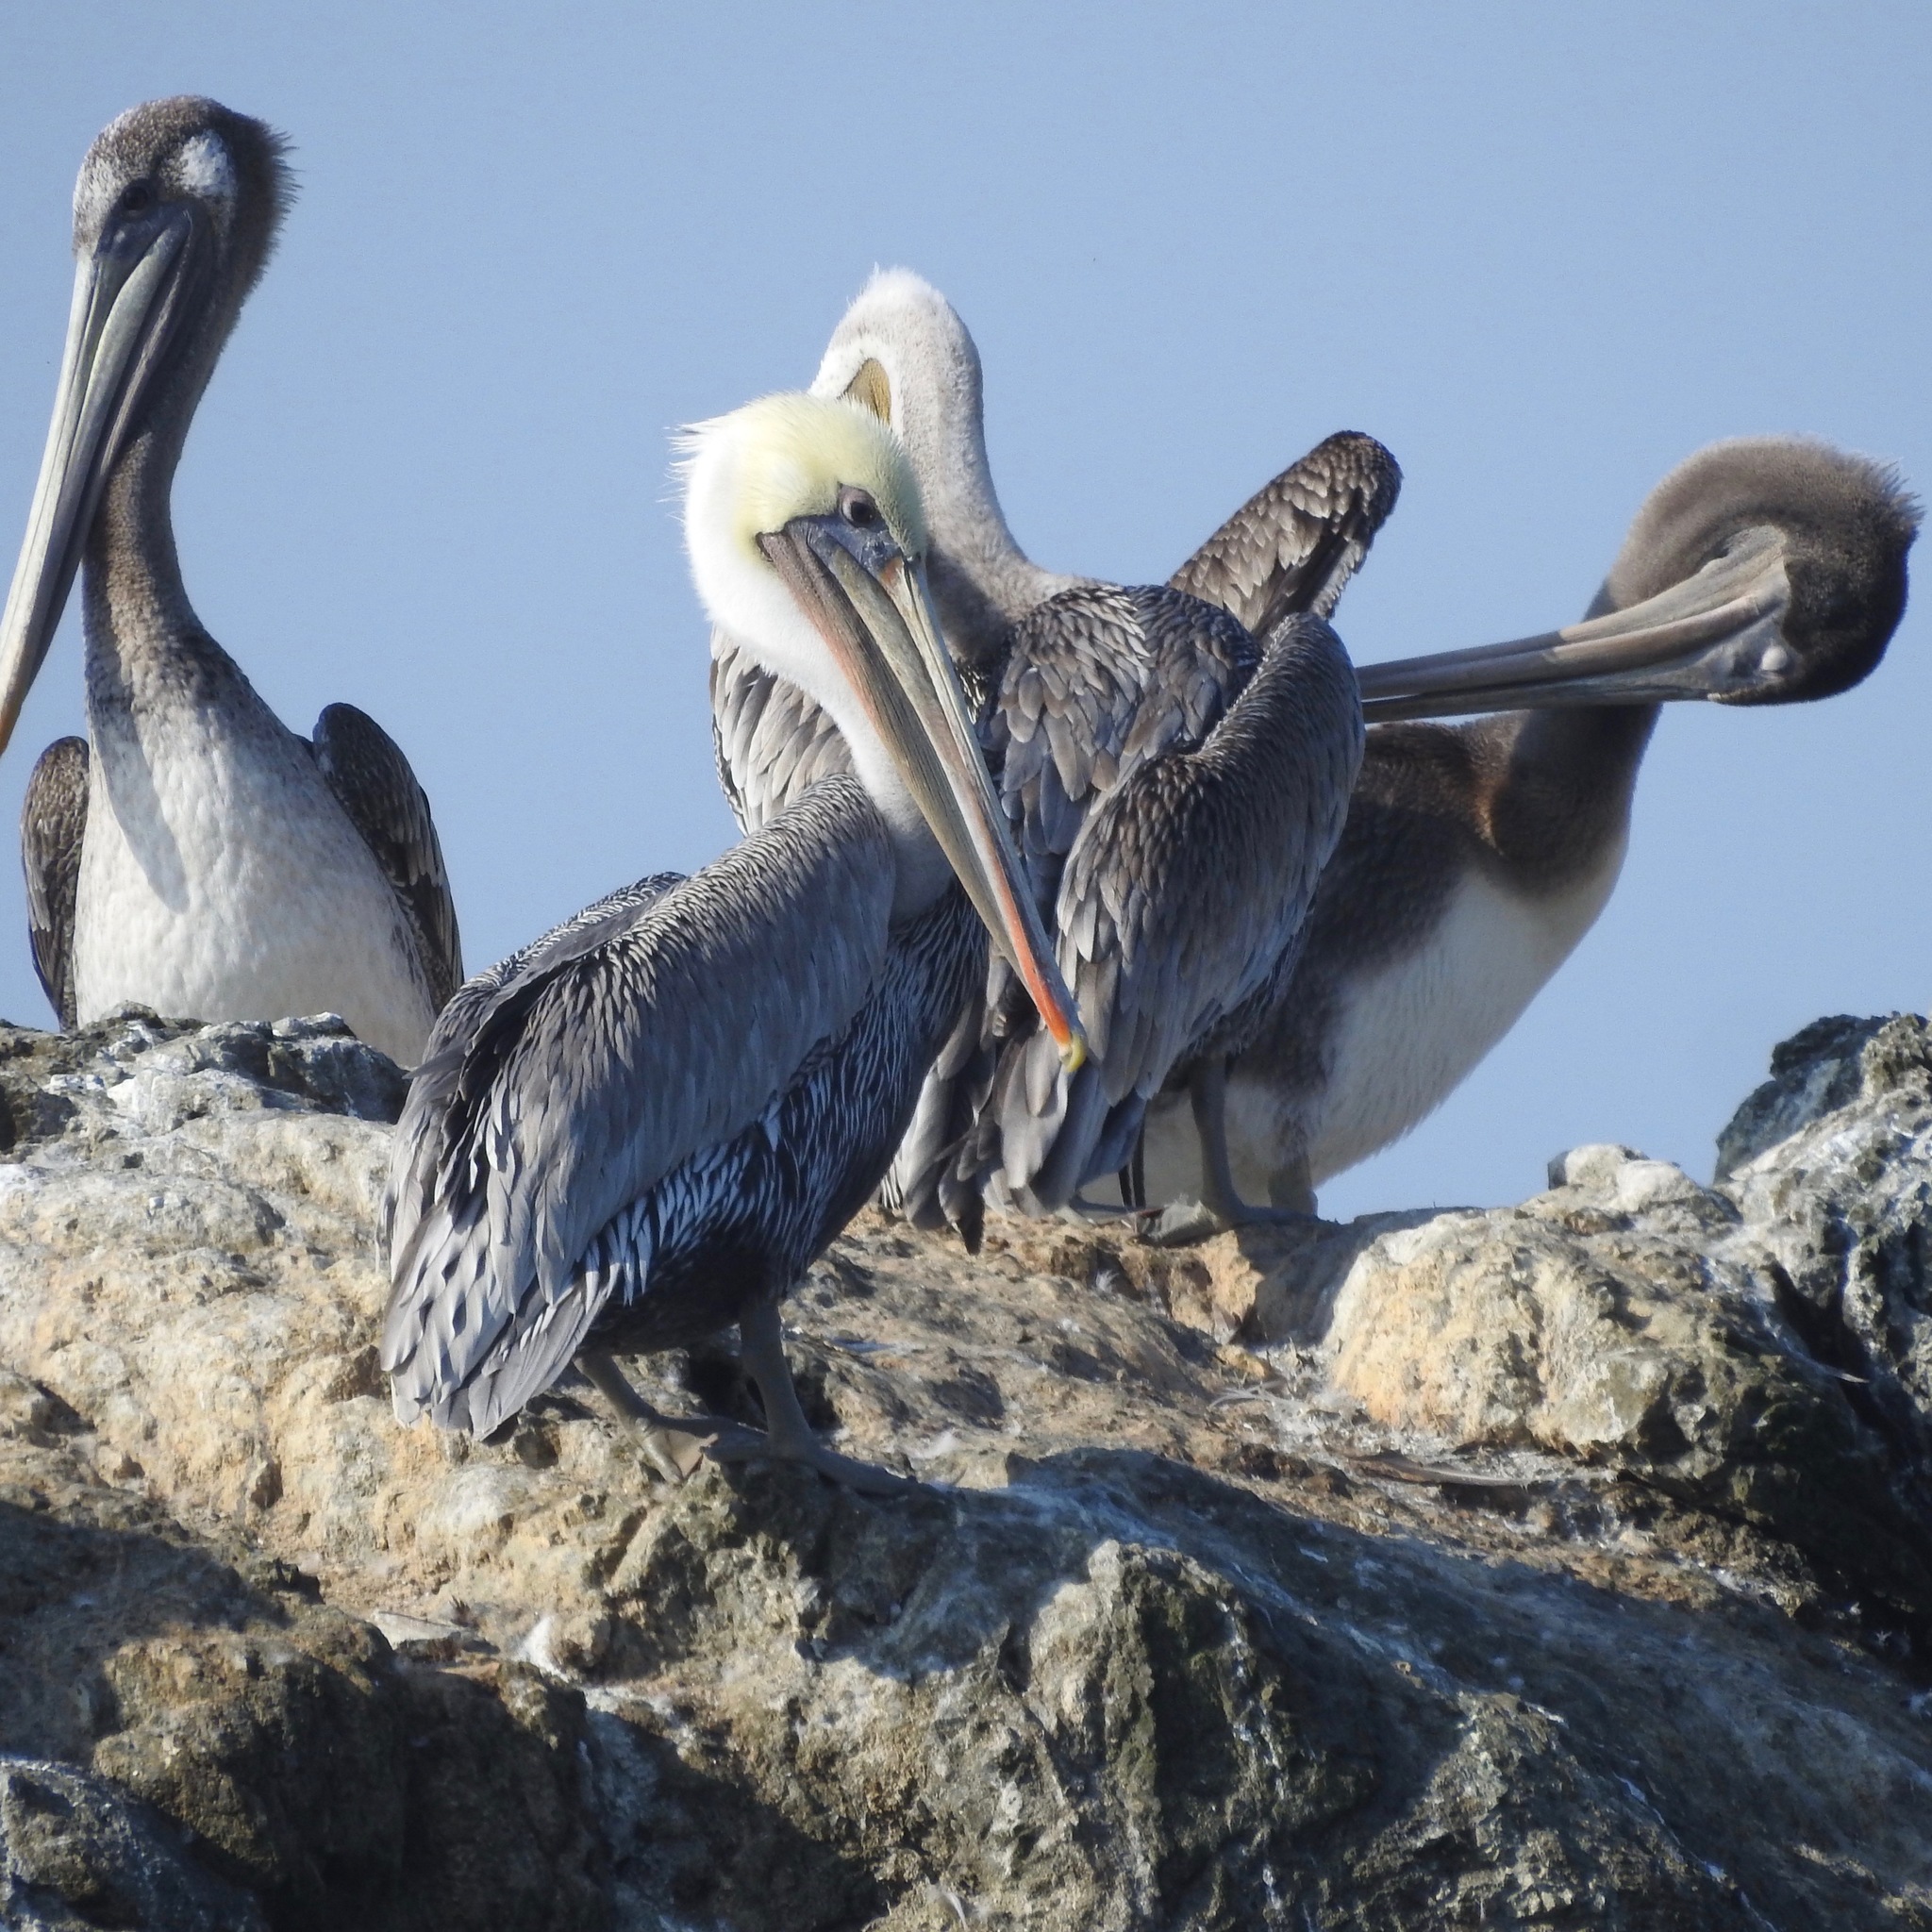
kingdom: Animalia
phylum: Chordata
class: Aves
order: Pelecaniformes
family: Pelecanidae
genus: Pelecanus
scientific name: Pelecanus occidentalis
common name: Brown pelican
